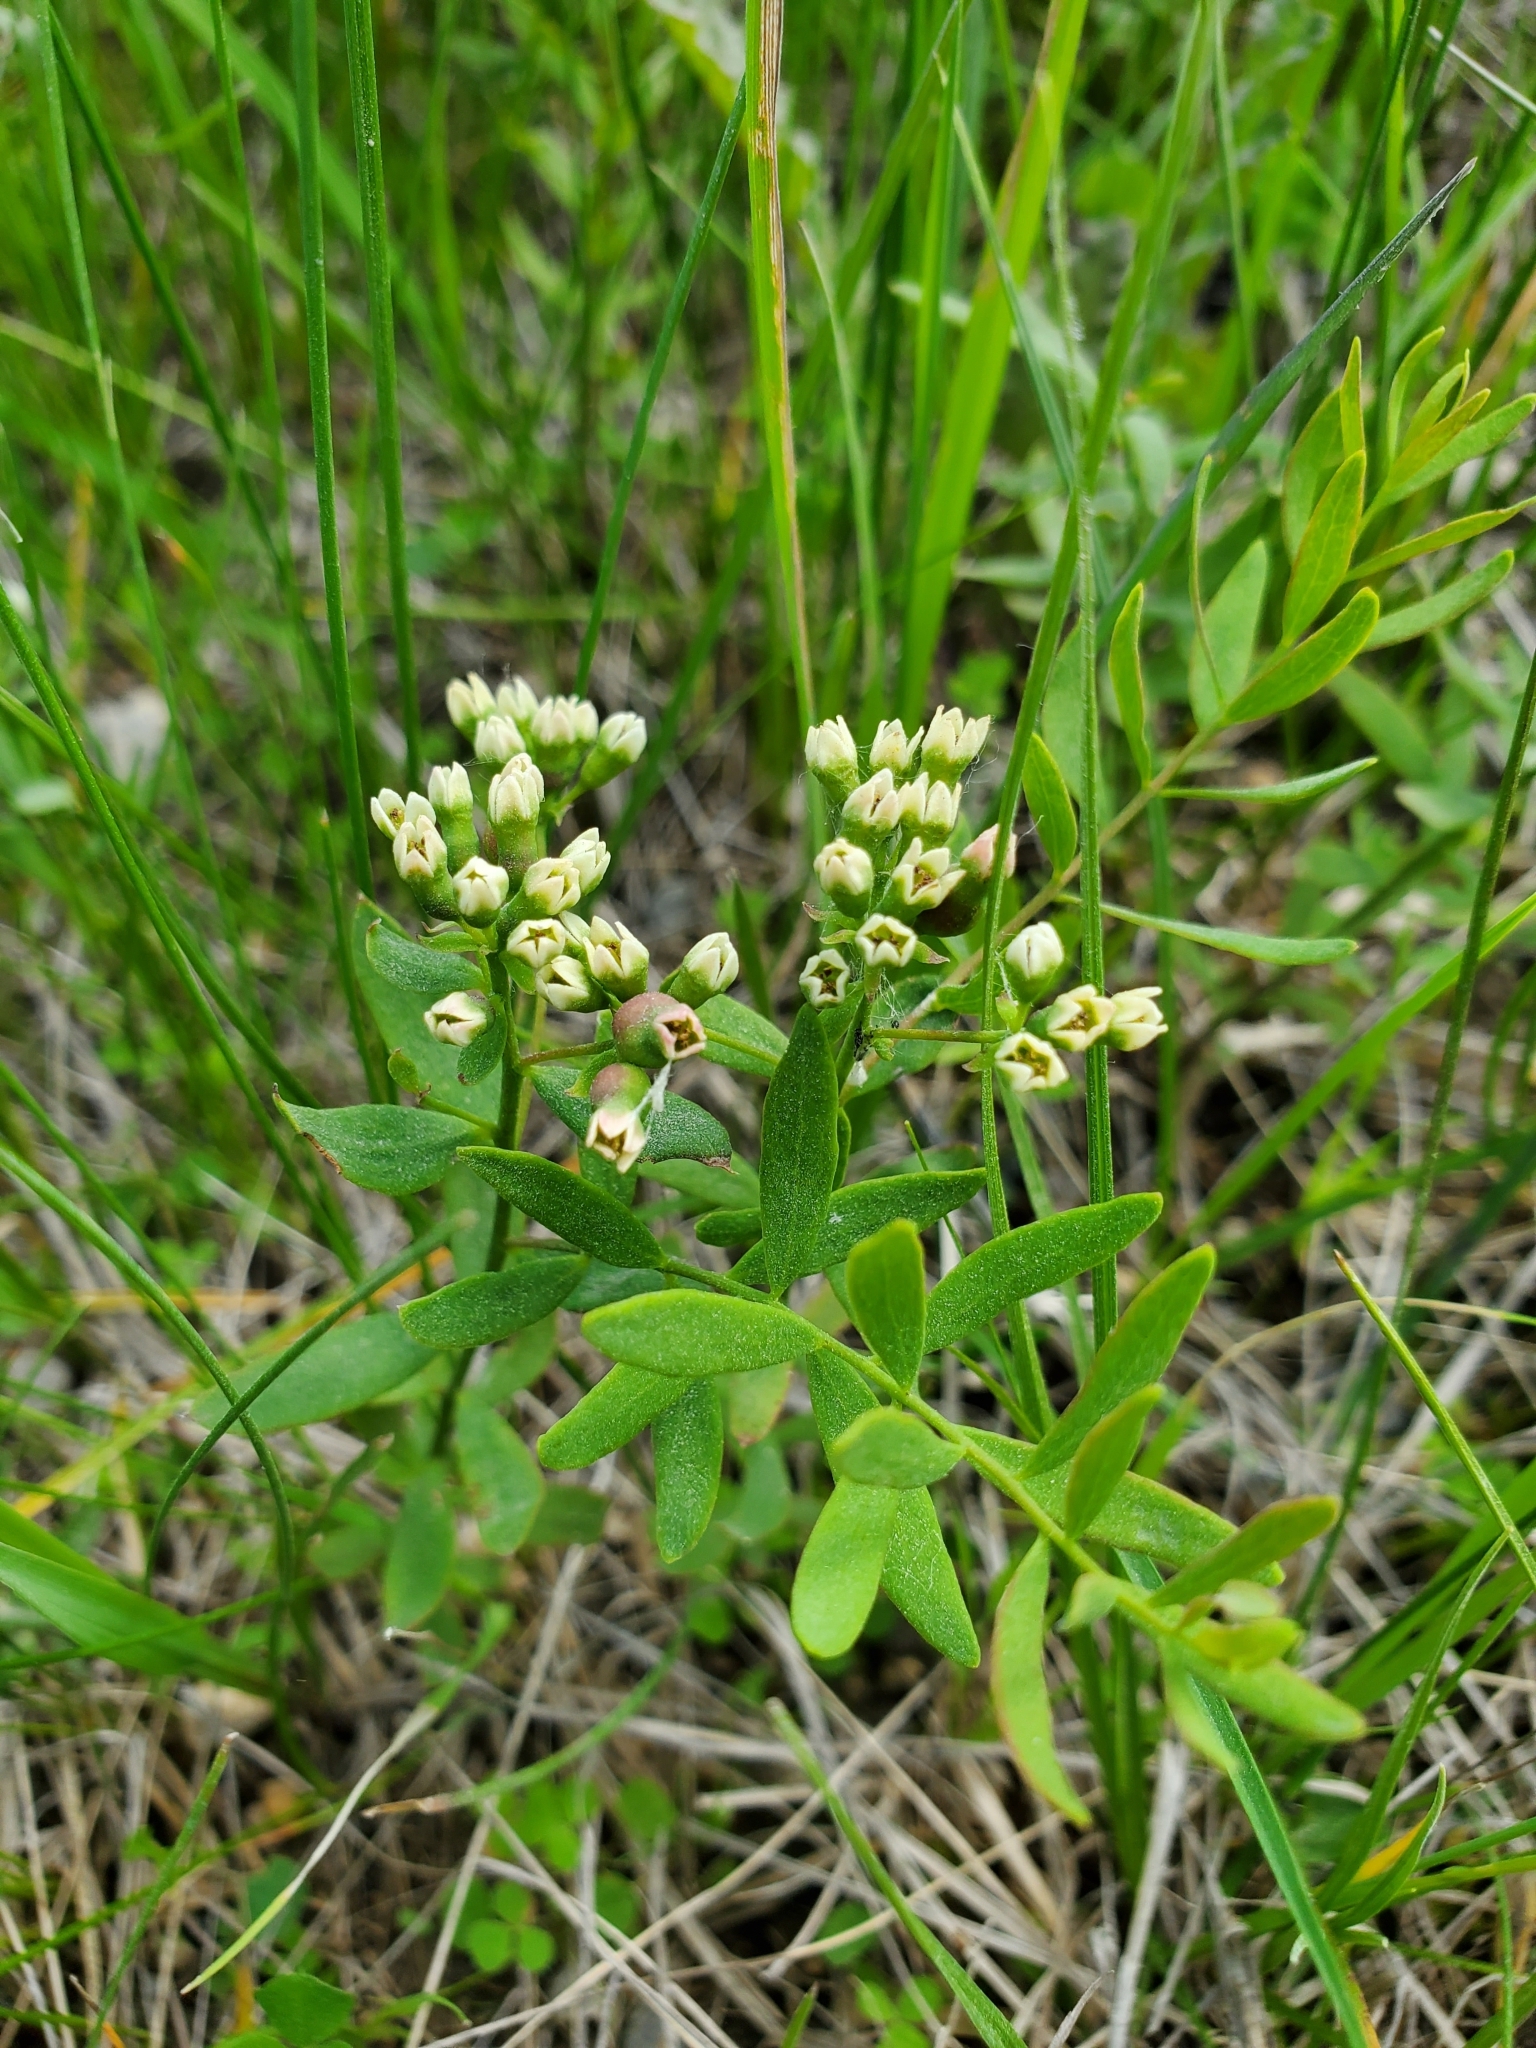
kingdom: Plantae
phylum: Tracheophyta
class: Magnoliopsida
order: Santalales
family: Comandraceae
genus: Comandra
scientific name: Comandra umbellata
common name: Bastard toadflax
